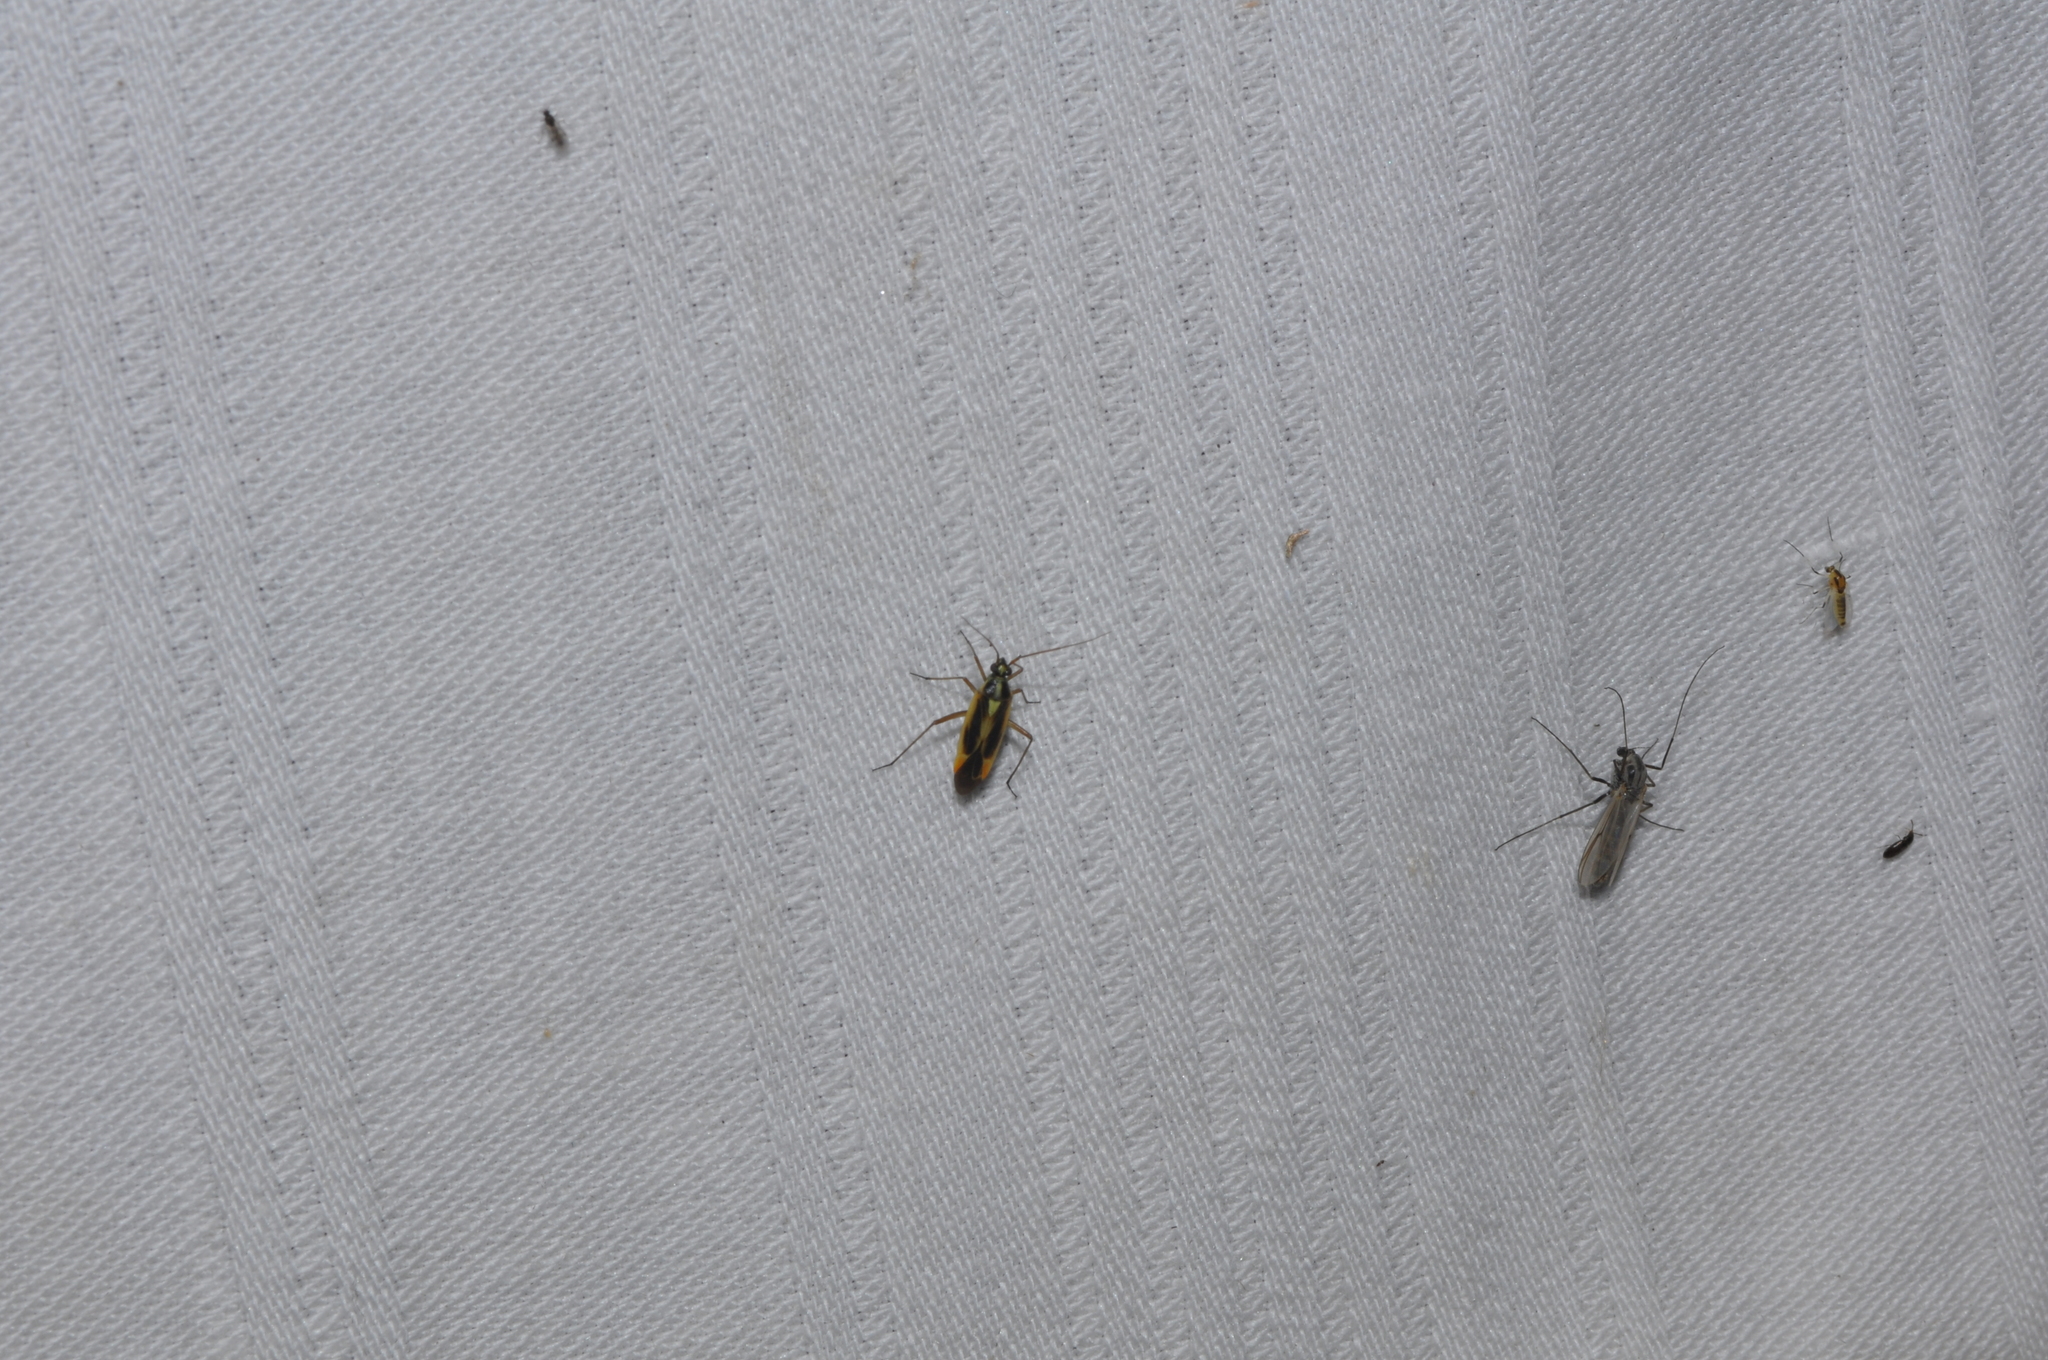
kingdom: Animalia
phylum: Arthropoda
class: Insecta
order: Hemiptera
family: Miridae
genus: Stenotus
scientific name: Stenotus binotatus
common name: Plant bug
